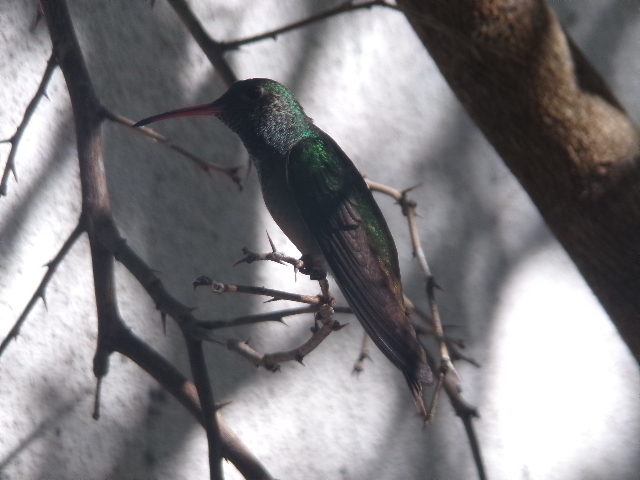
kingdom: Animalia
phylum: Chordata
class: Aves
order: Apodiformes
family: Trochilidae
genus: Amazilia
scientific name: Amazilia yucatanensis
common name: Buff-bellied hummingbird
